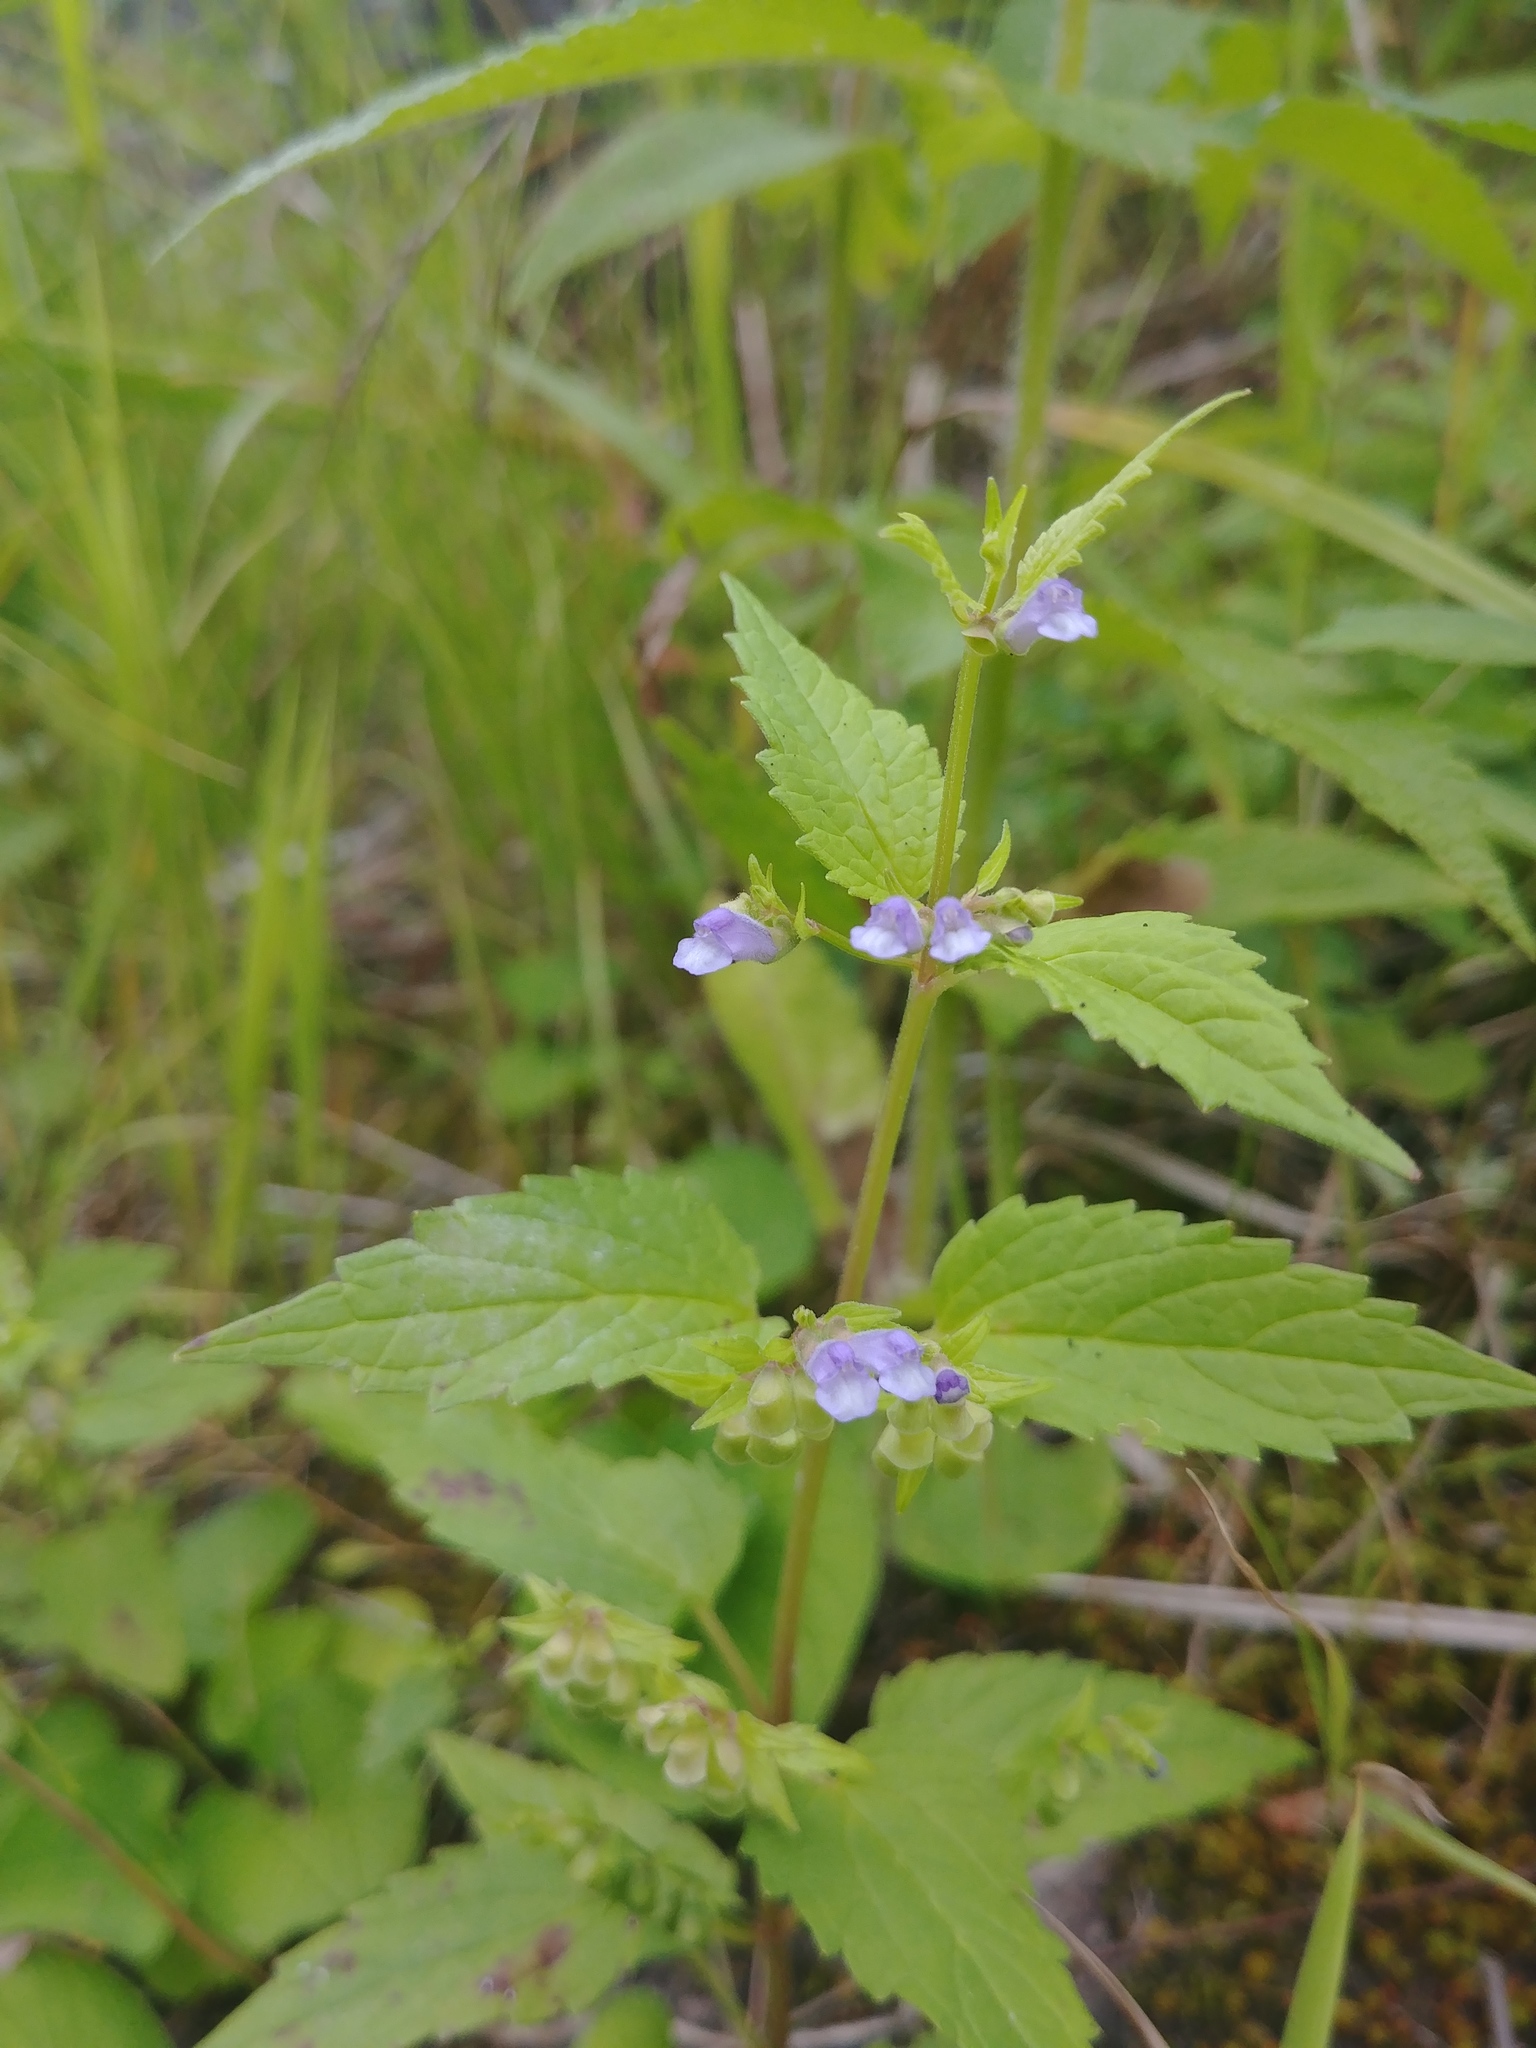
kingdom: Plantae
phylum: Tracheophyta
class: Magnoliopsida
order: Lamiales
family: Lamiaceae
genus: Scutellaria
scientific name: Scutellaria lateriflora
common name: Blue skullcap
